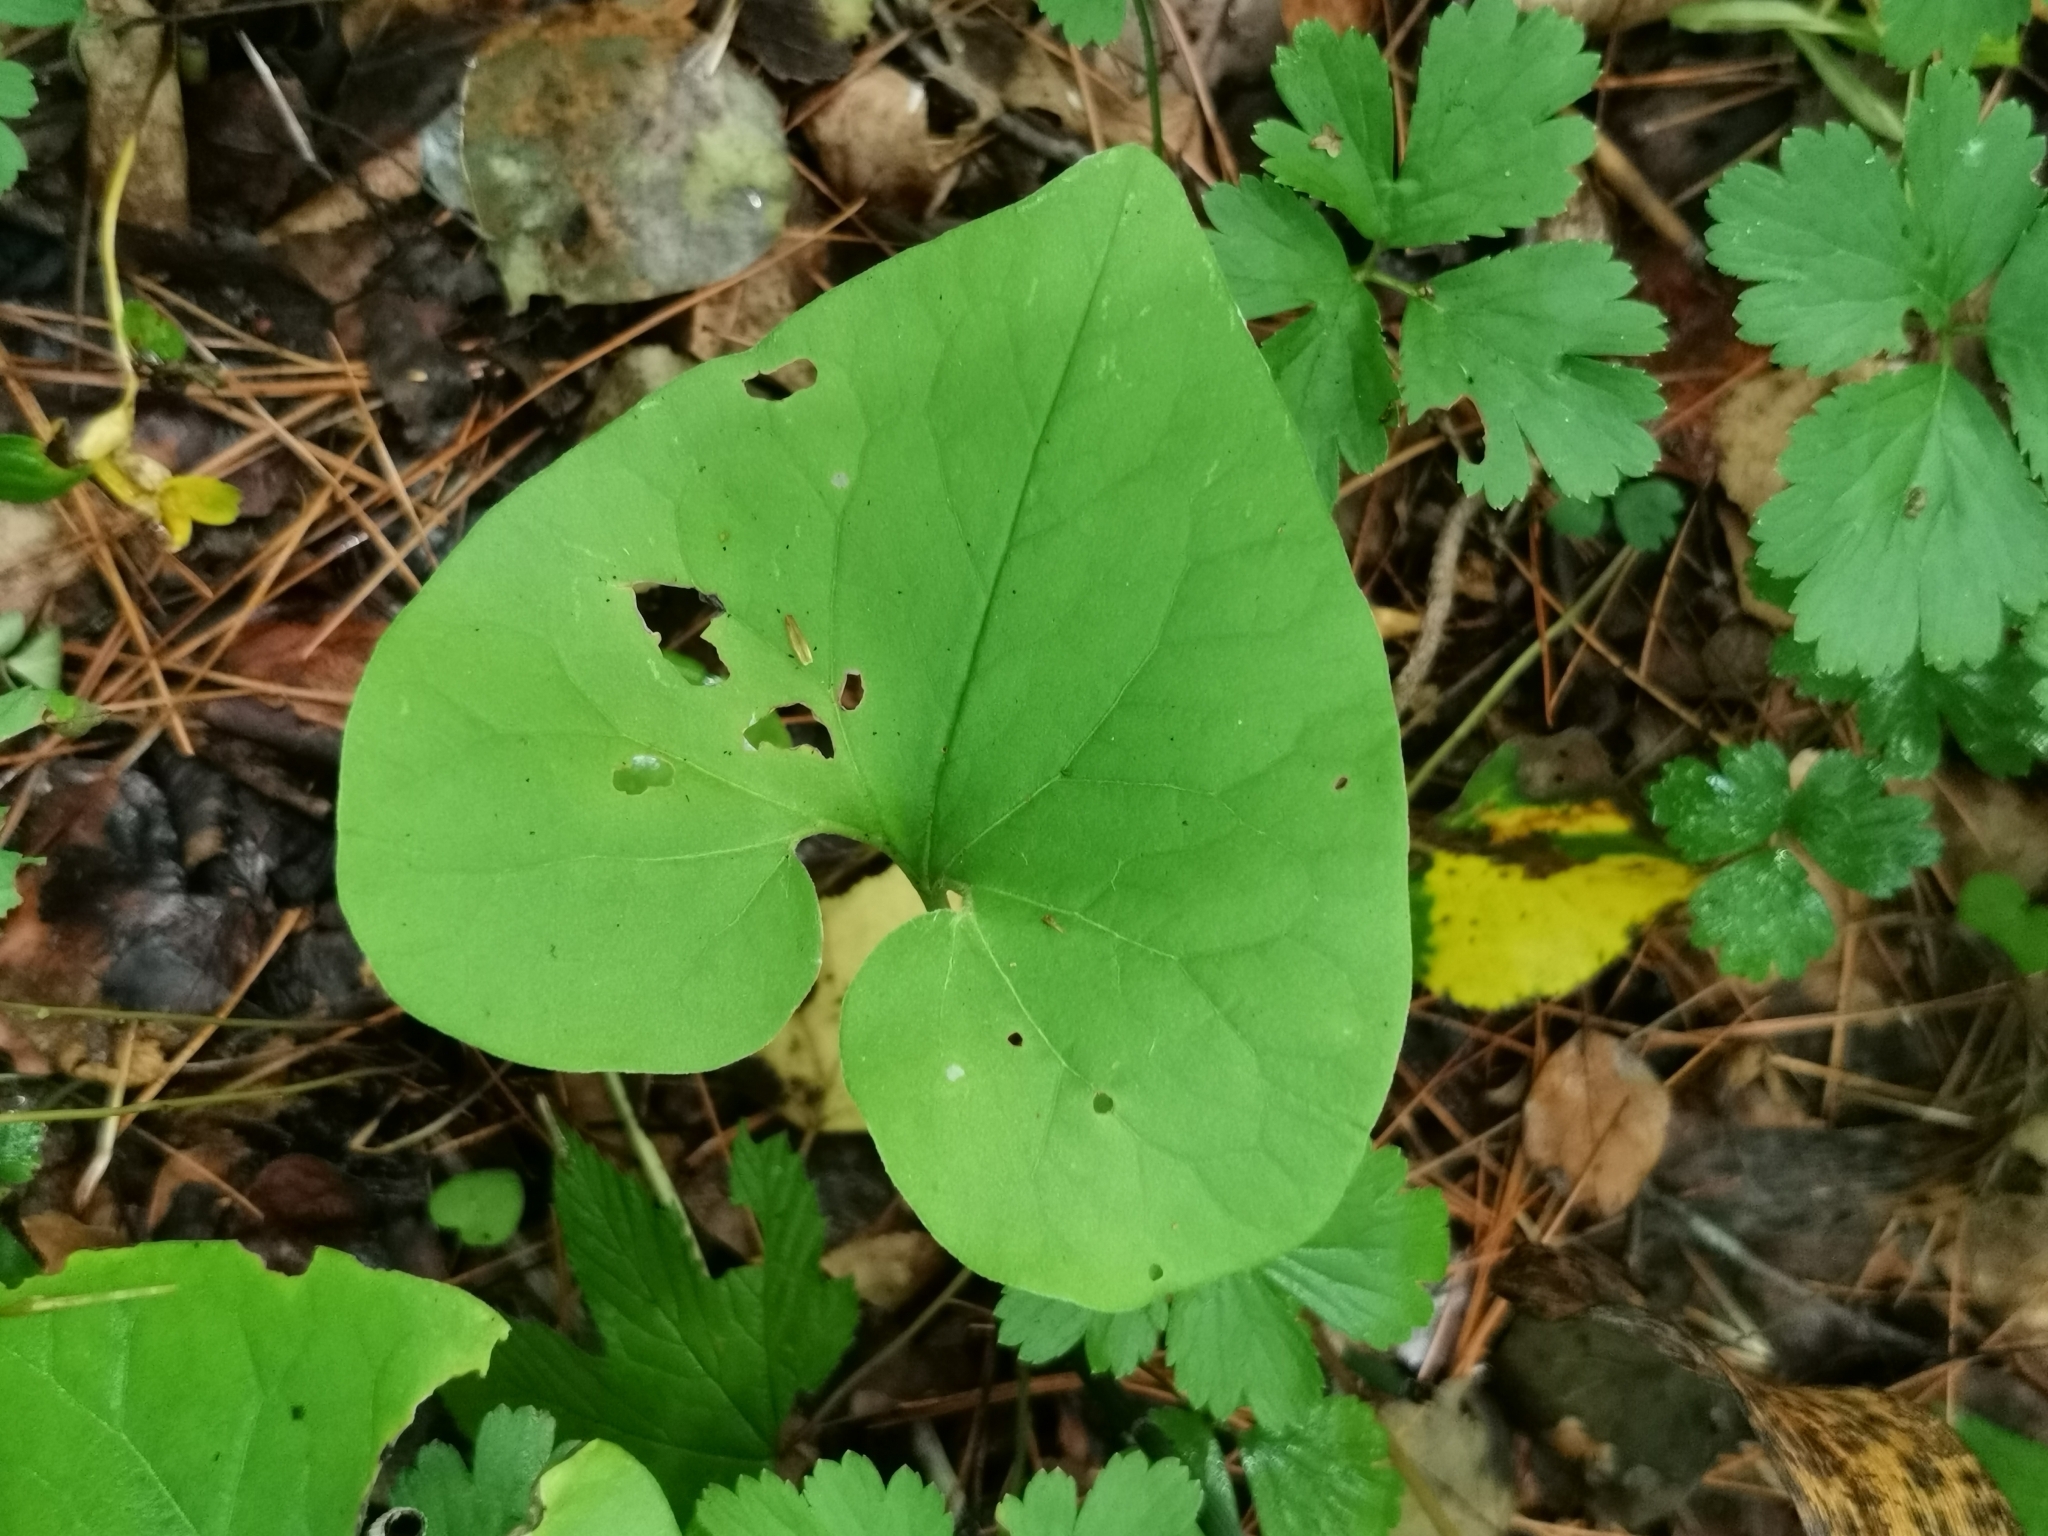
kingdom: Plantae
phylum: Tracheophyta
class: Magnoliopsida
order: Piperales
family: Aristolochiaceae
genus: Asarum
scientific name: Asarum sieboldii
